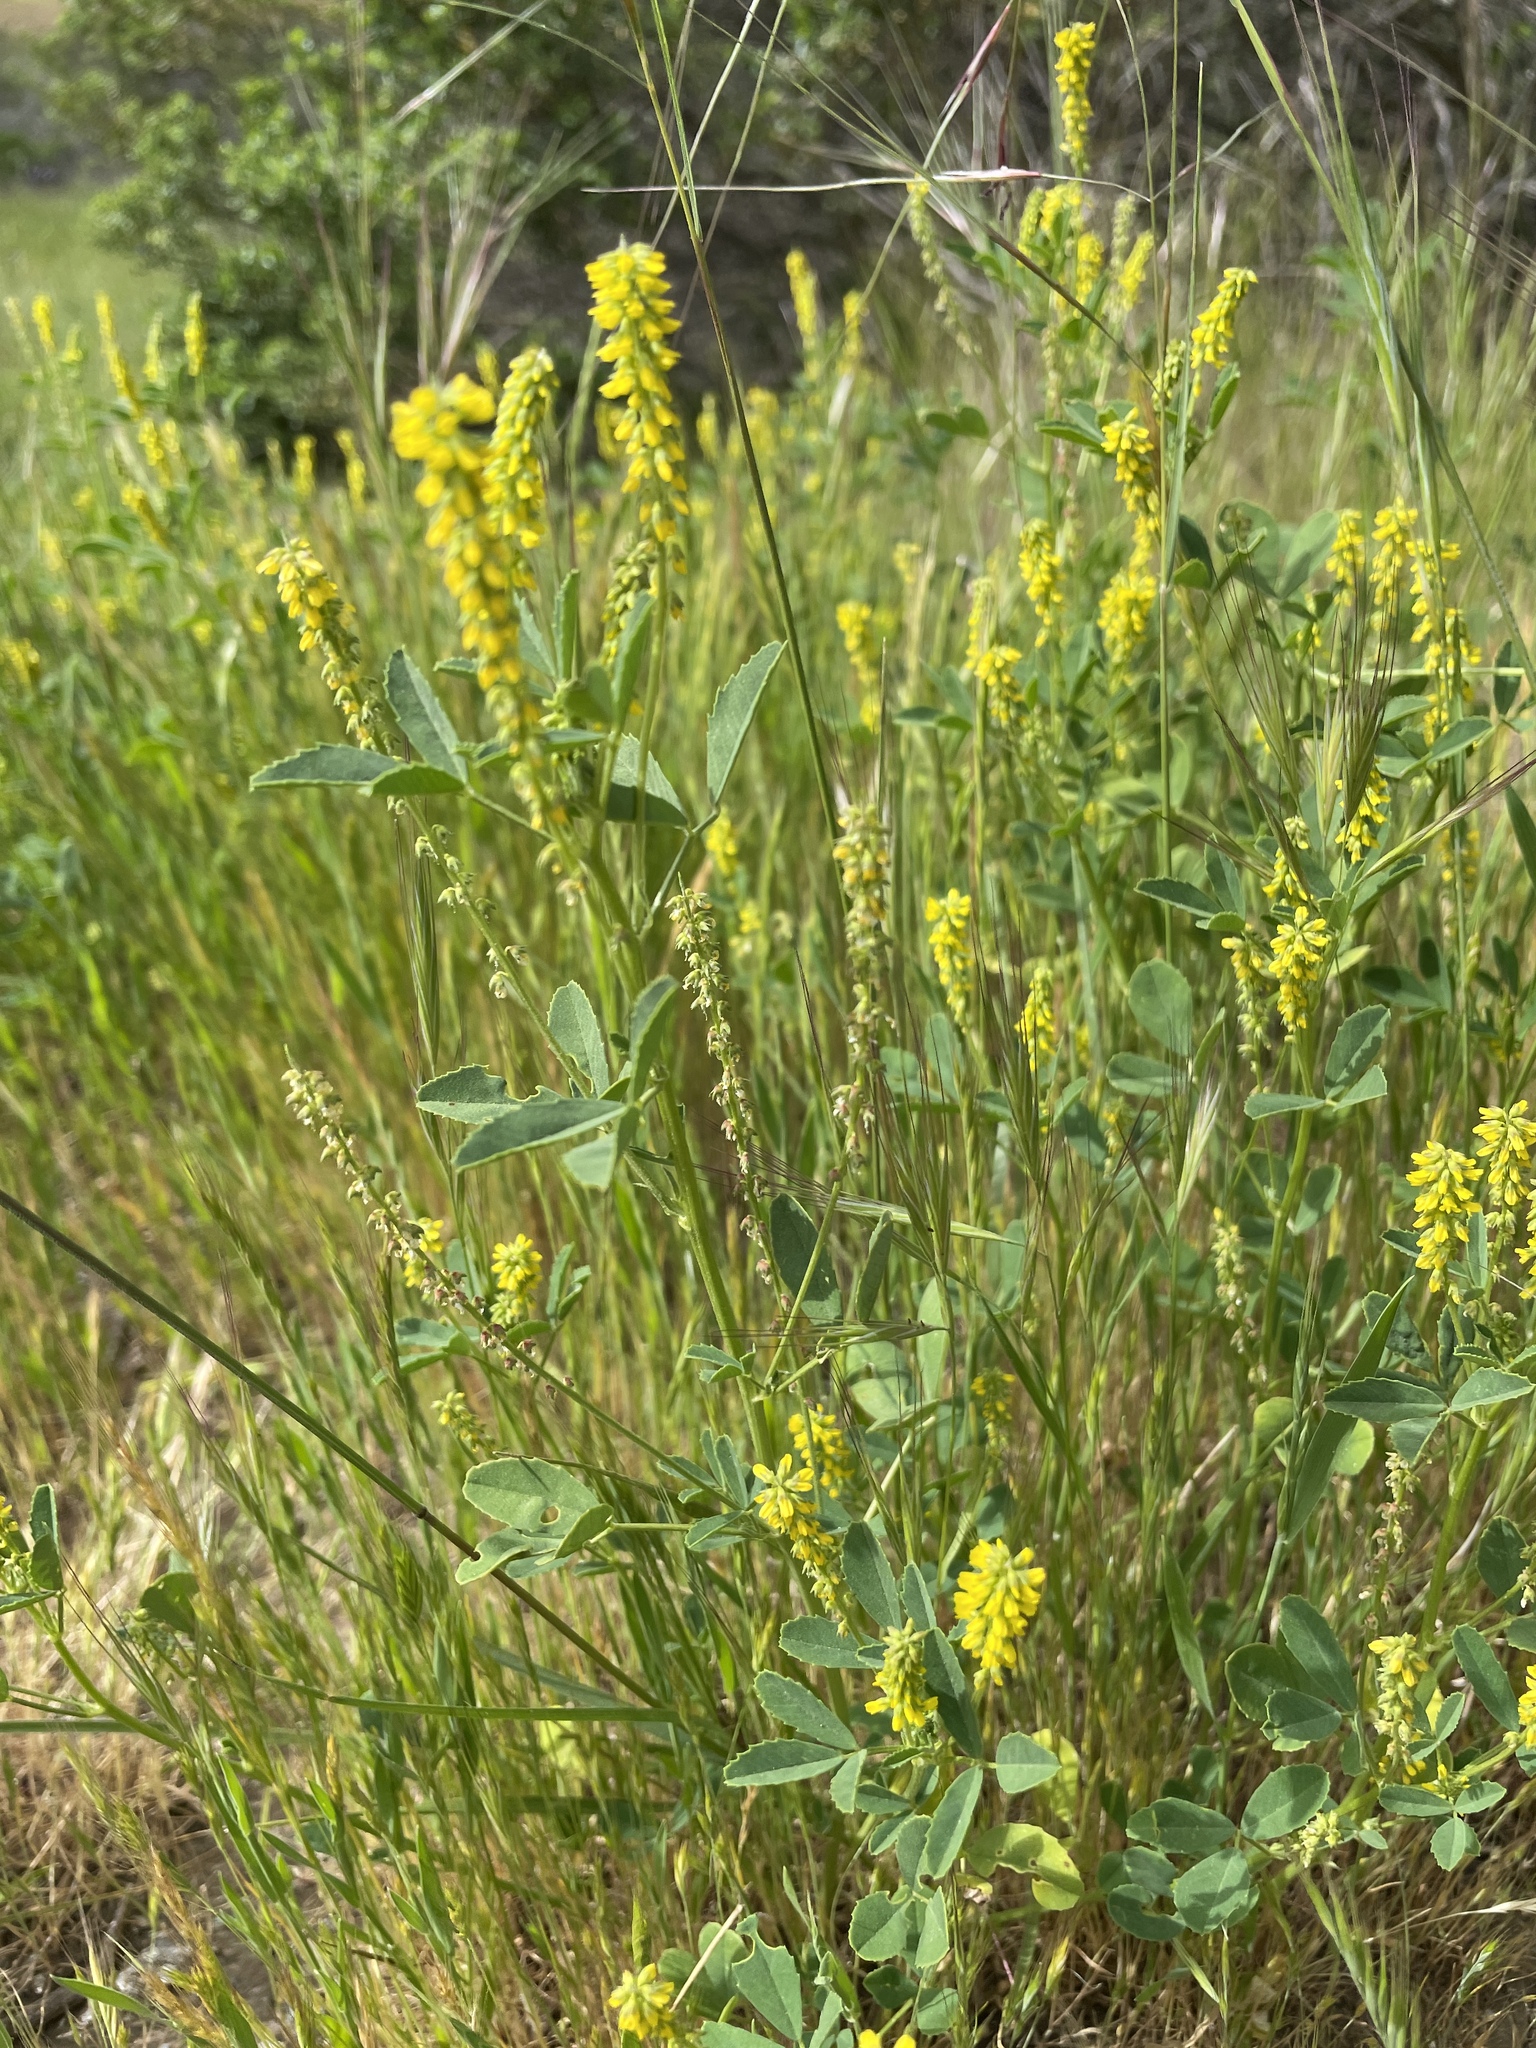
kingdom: Plantae
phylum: Tracheophyta
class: Magnoliopsida
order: Fabales
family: Fabaceae
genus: Melilotus
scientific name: Melilotus indicus
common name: Small melilot
